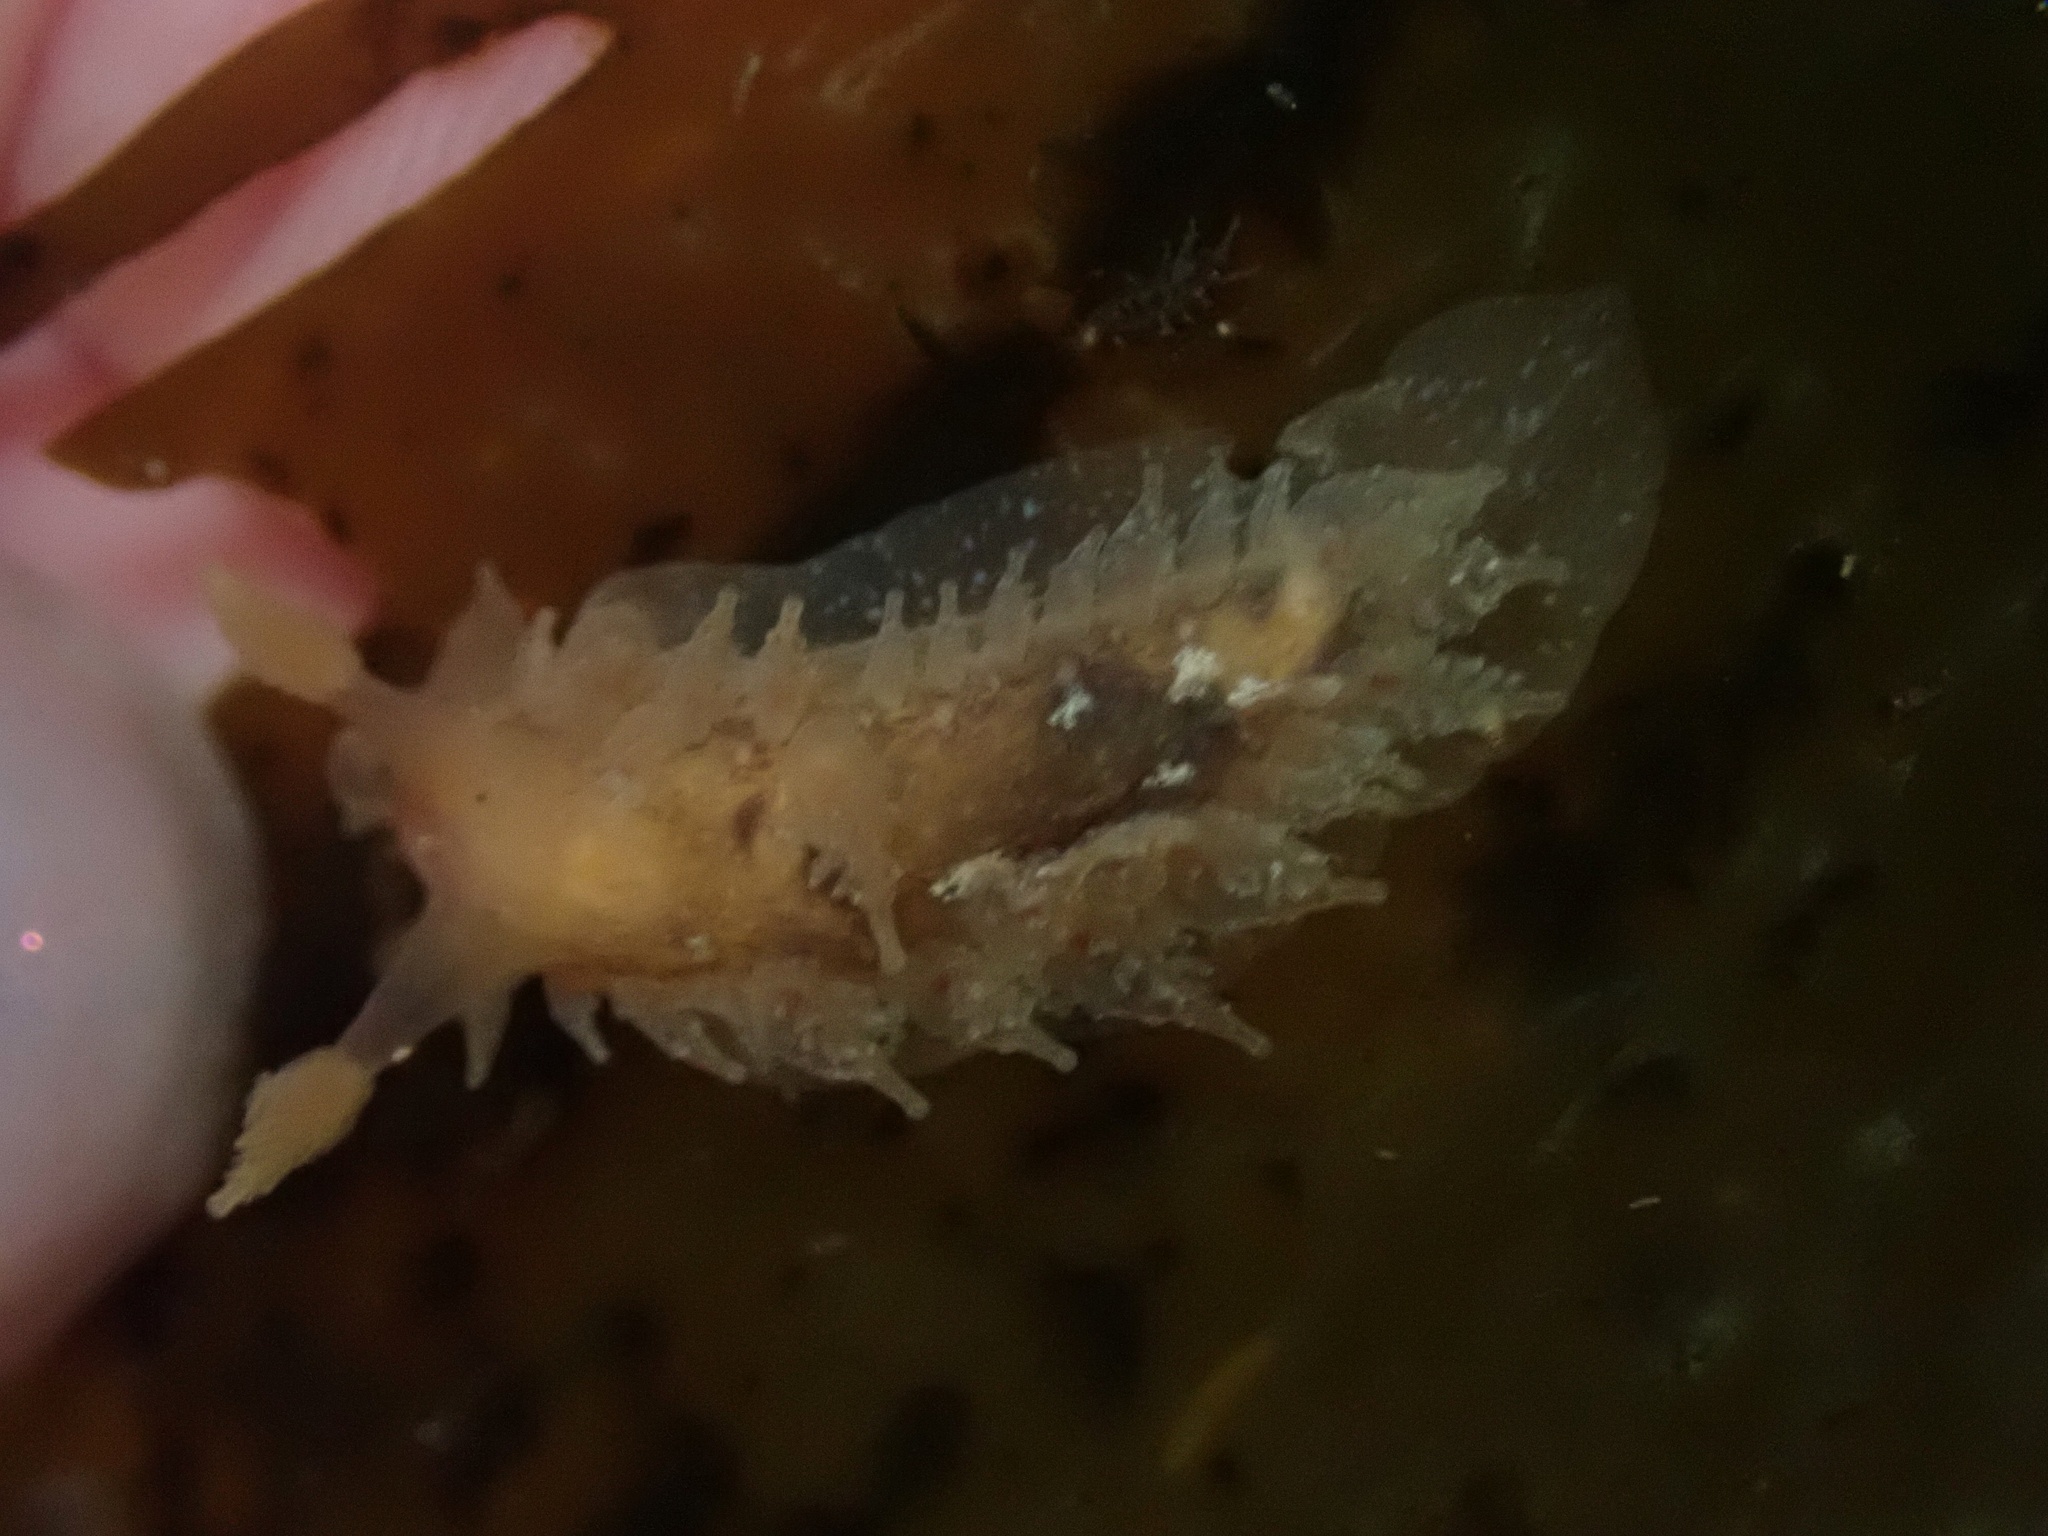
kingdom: Animalia
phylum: Mollusca
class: Gastropoda
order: Nudibranchia
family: Dironidae
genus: Dirona
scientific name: Dirona picta
